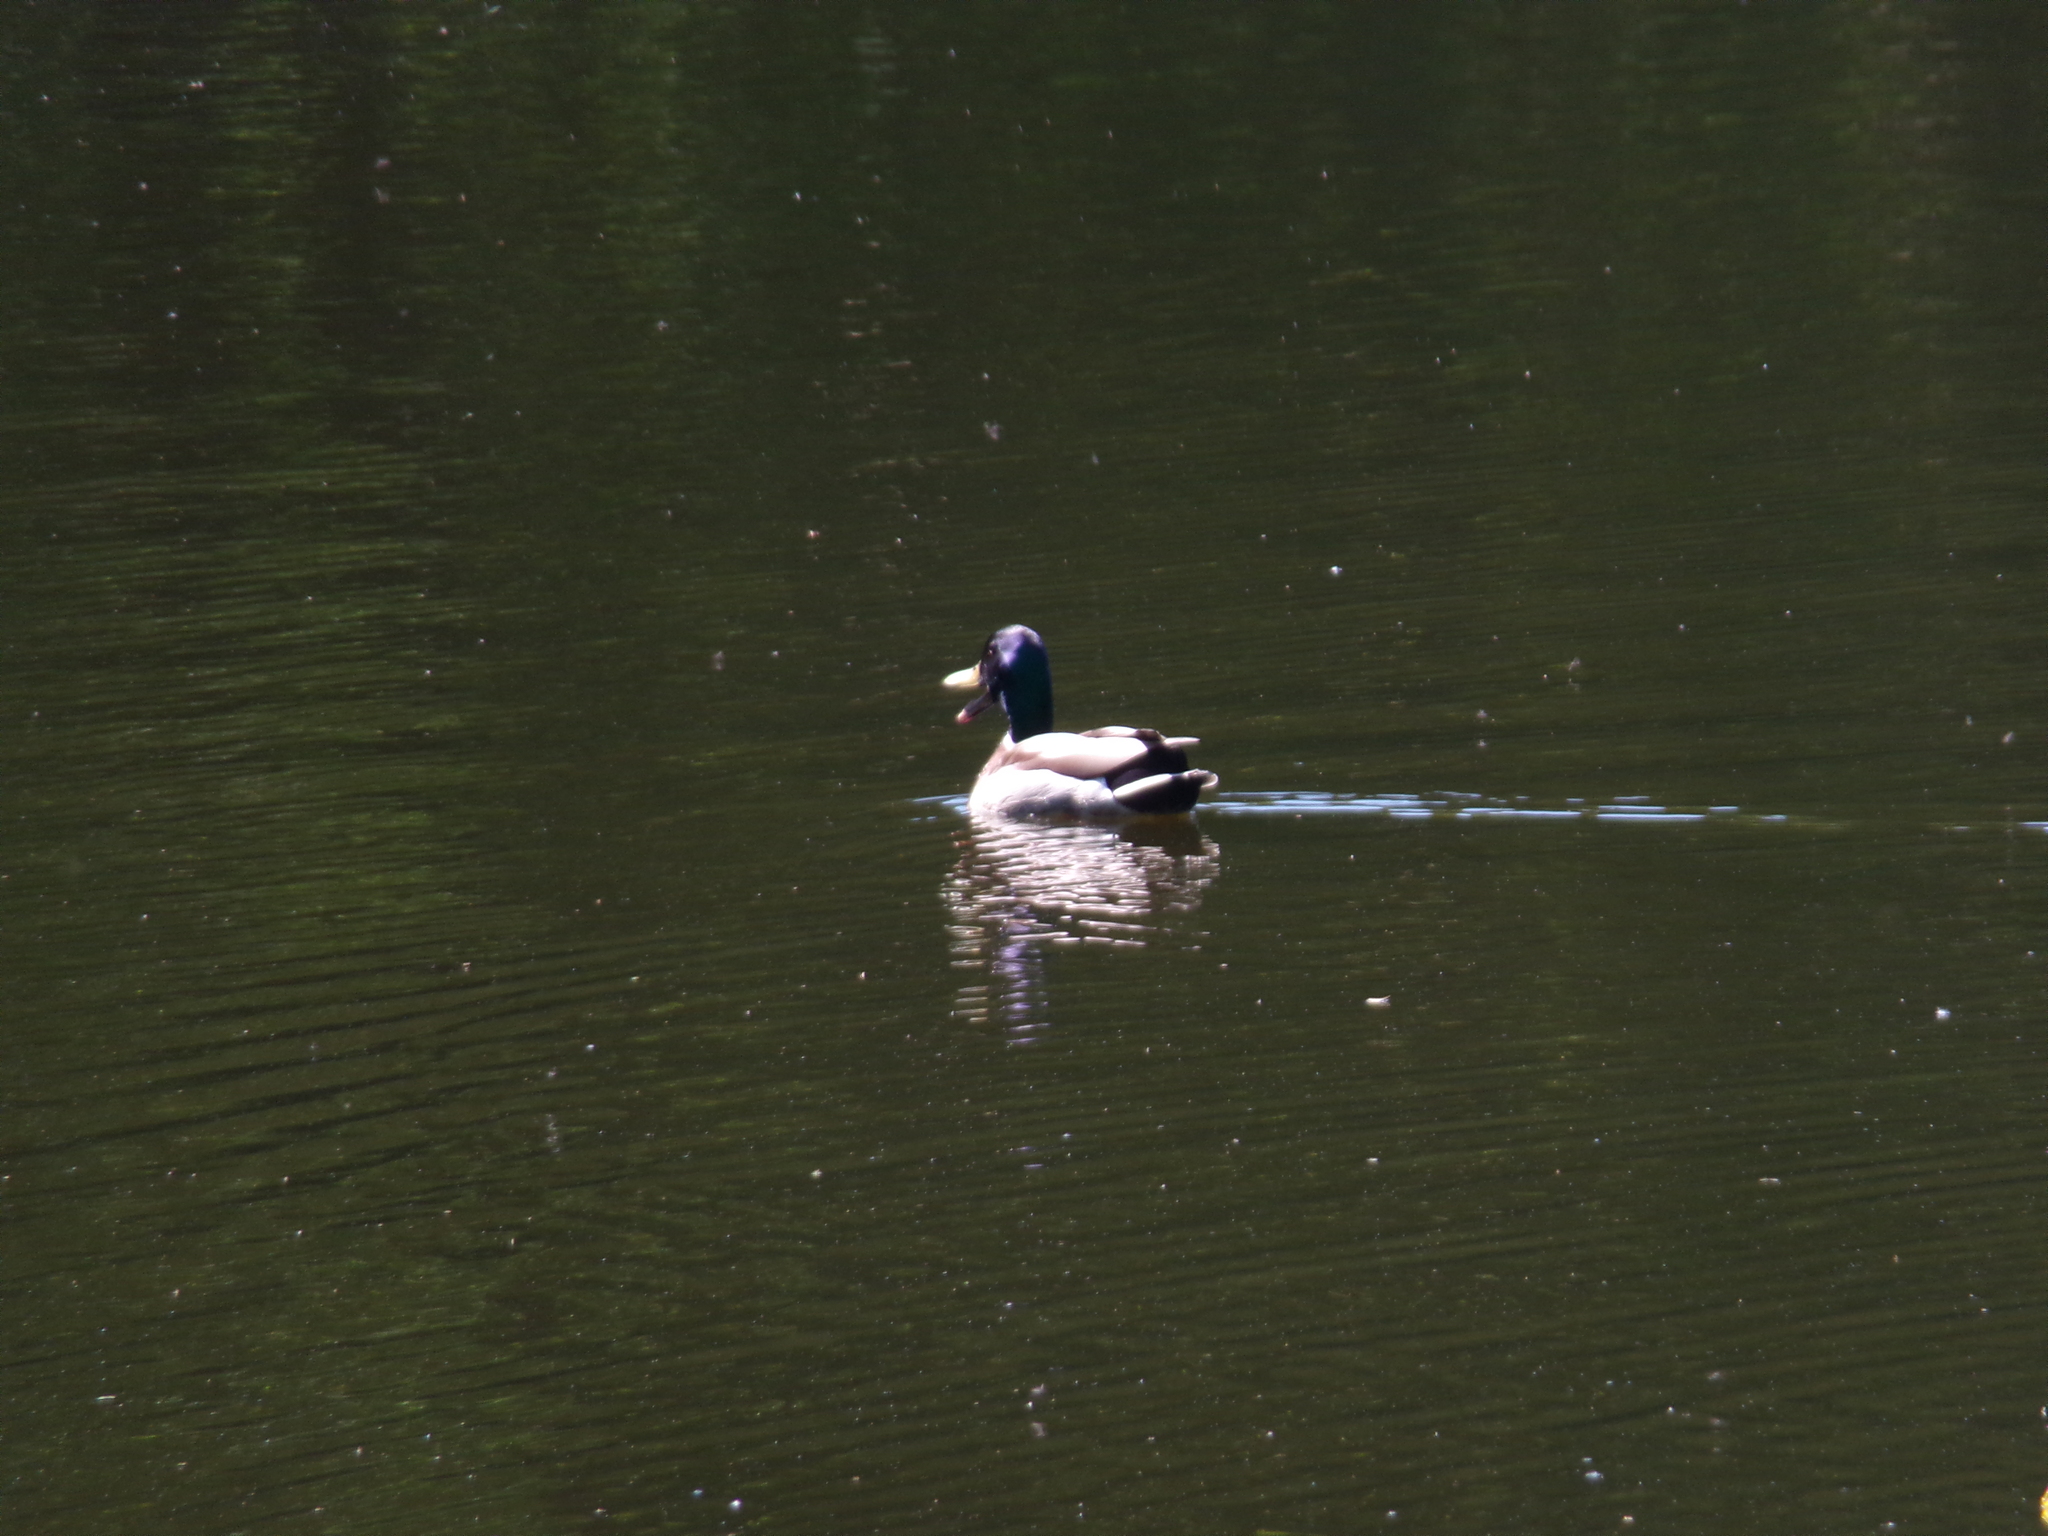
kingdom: Animalia
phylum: Chordata
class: Aves
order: Anseriformes
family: Anatidae
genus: Anas
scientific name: Anas platyrhynchos
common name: Mallard
